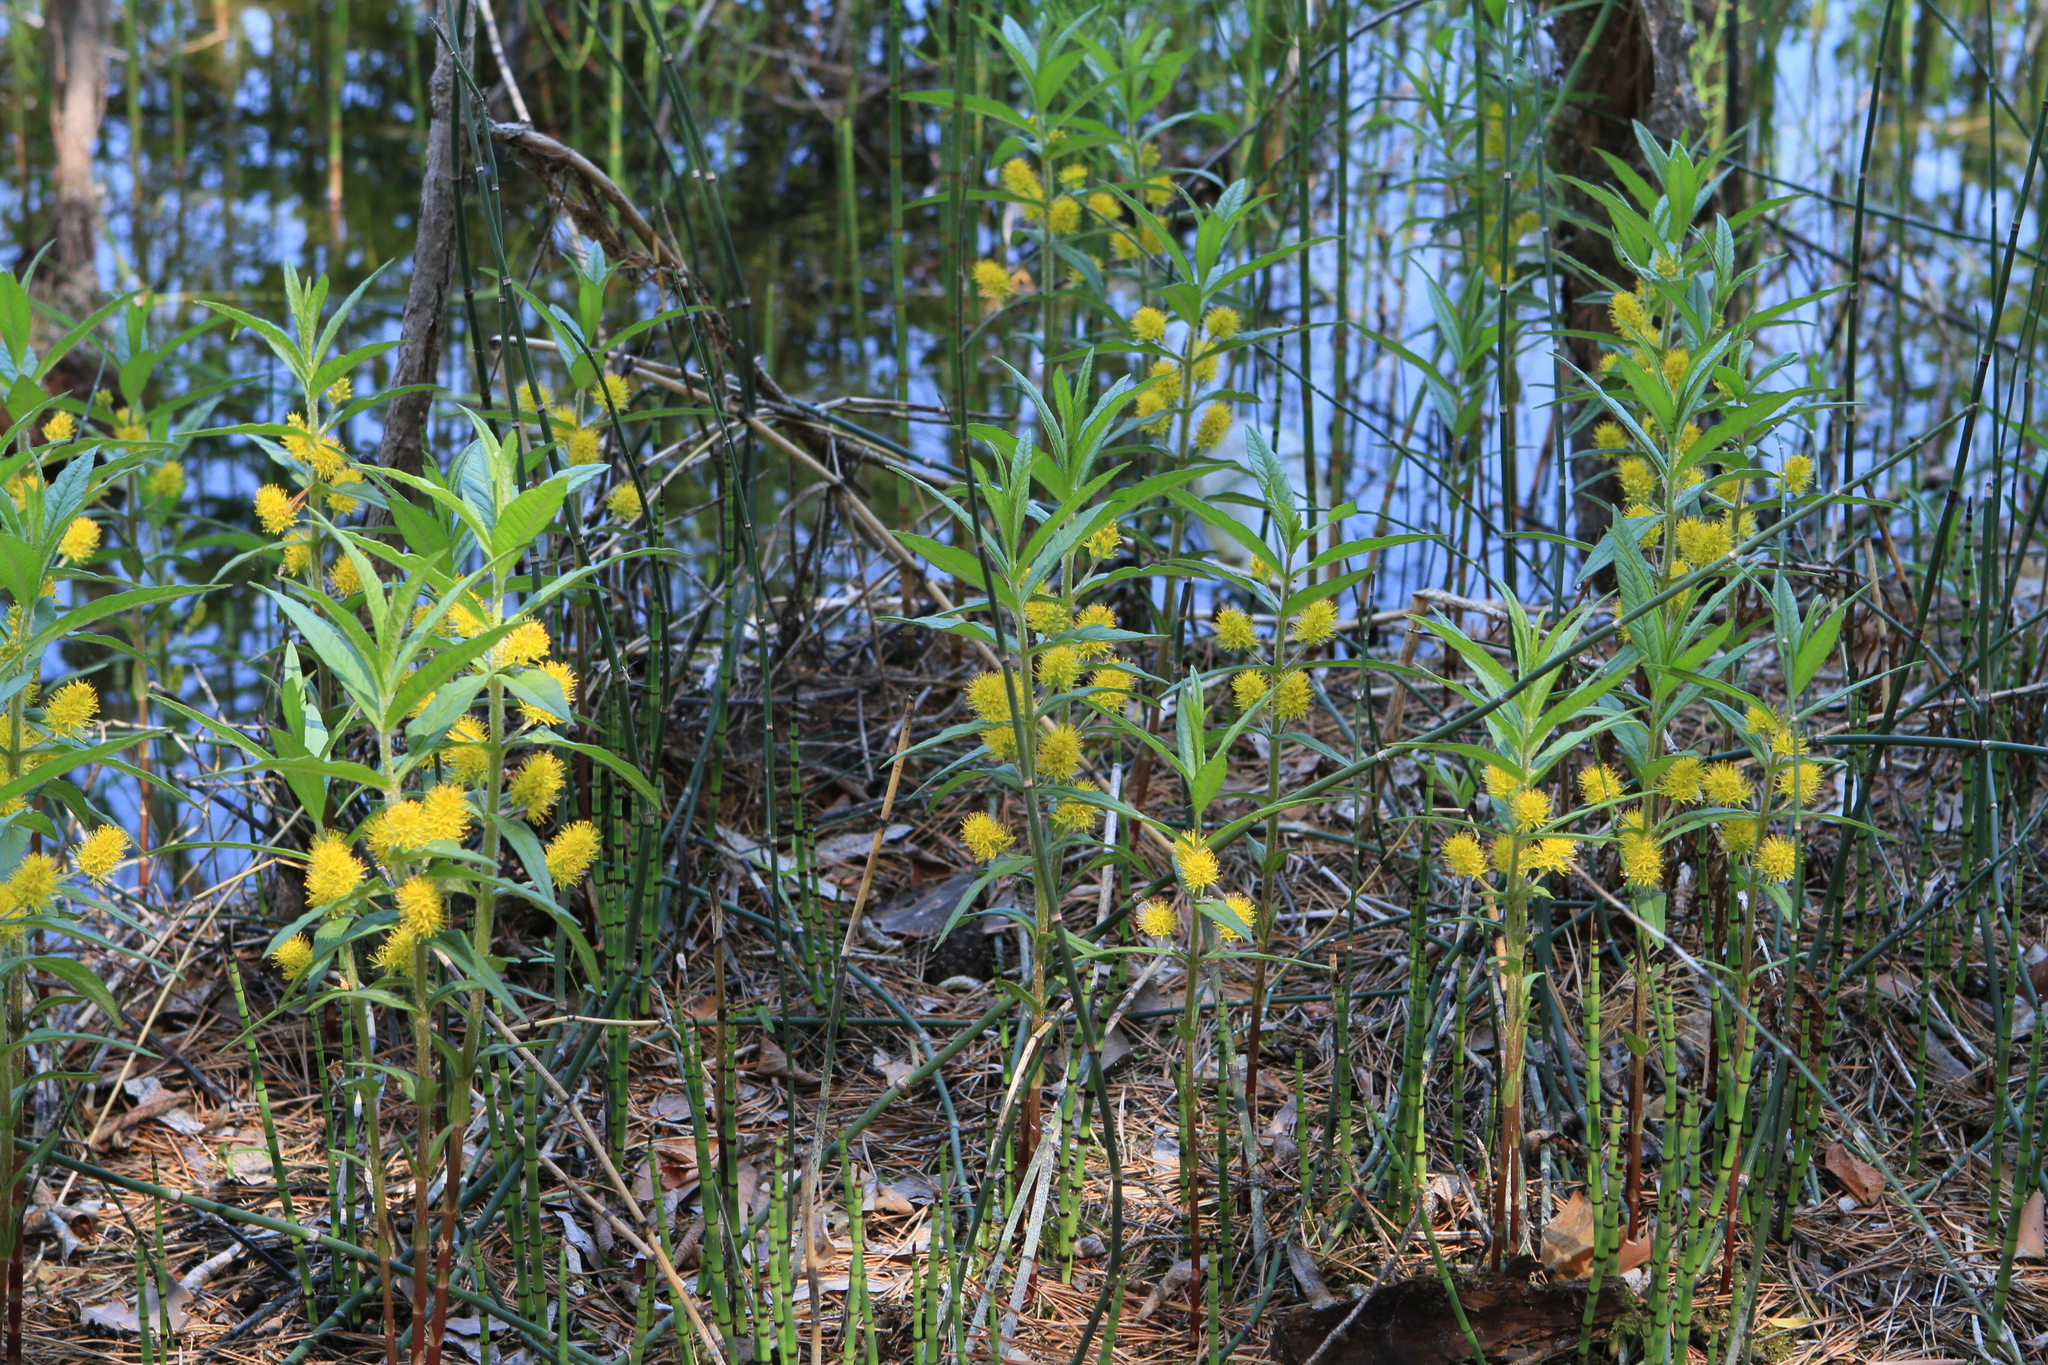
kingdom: Plantae
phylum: Tracheophyta
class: Magnoliopsida
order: Ericales
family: Primulaceae
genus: Lysimachia
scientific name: Lysimachia thyrsiflora
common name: Tufted loosestrife
